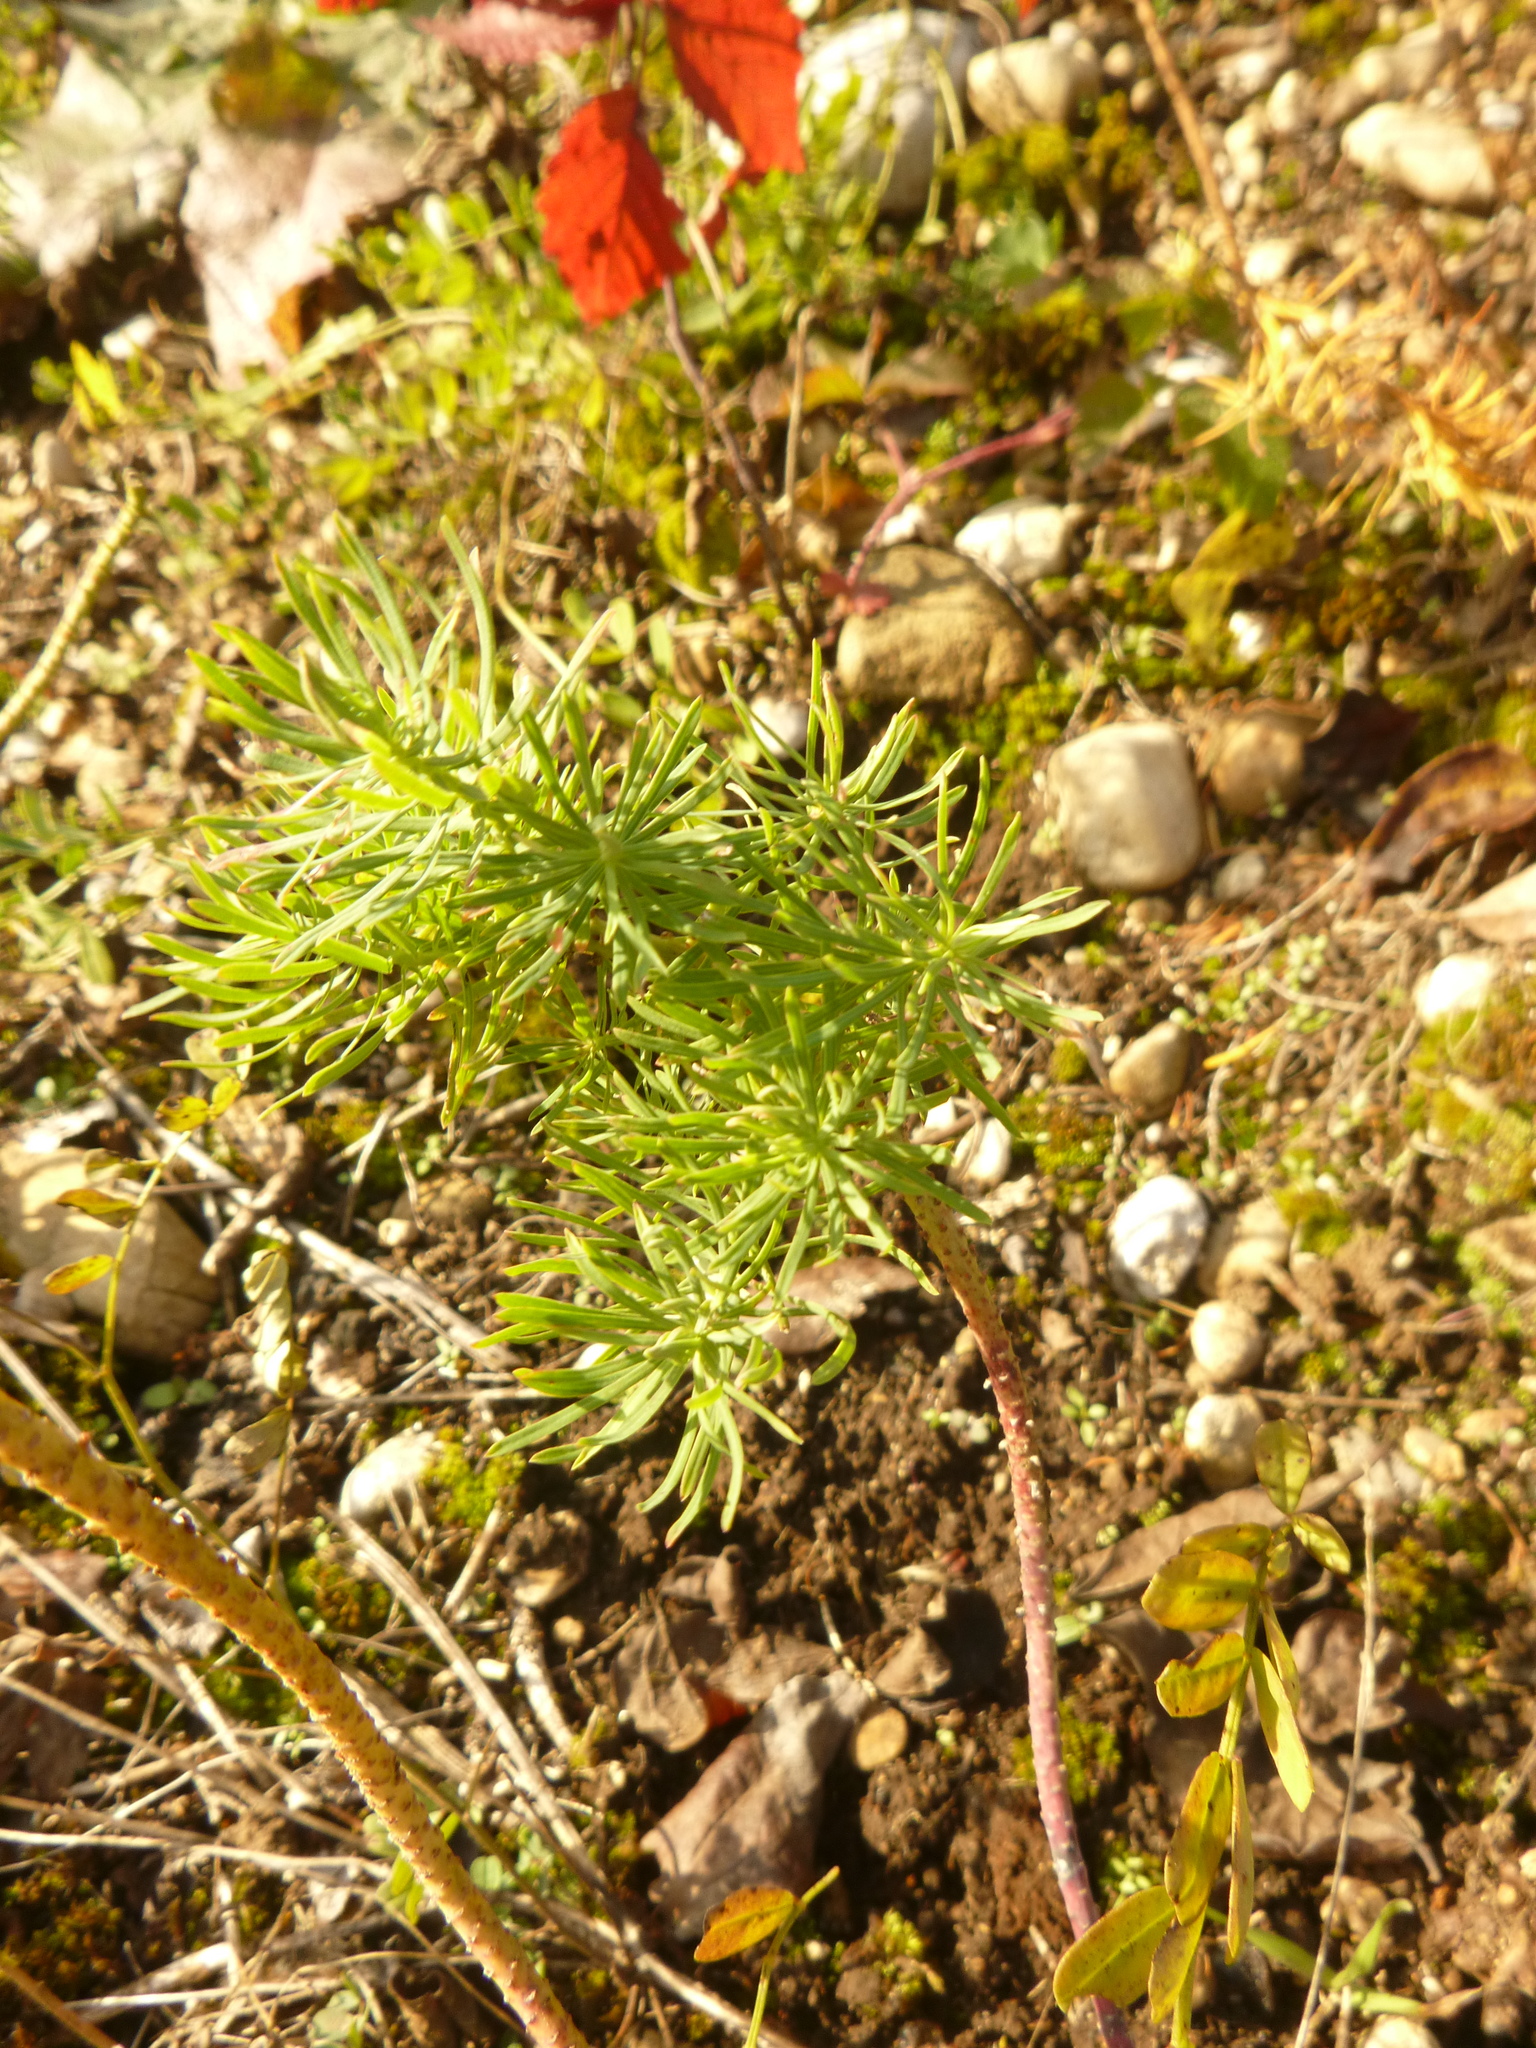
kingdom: Plantae
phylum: Tracheophyta
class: Magnoliopsida
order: Malpighiales
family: Euphorbiaceae
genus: Euphorbia
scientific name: Euphorbia cyparissias
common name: Cypress spurge
